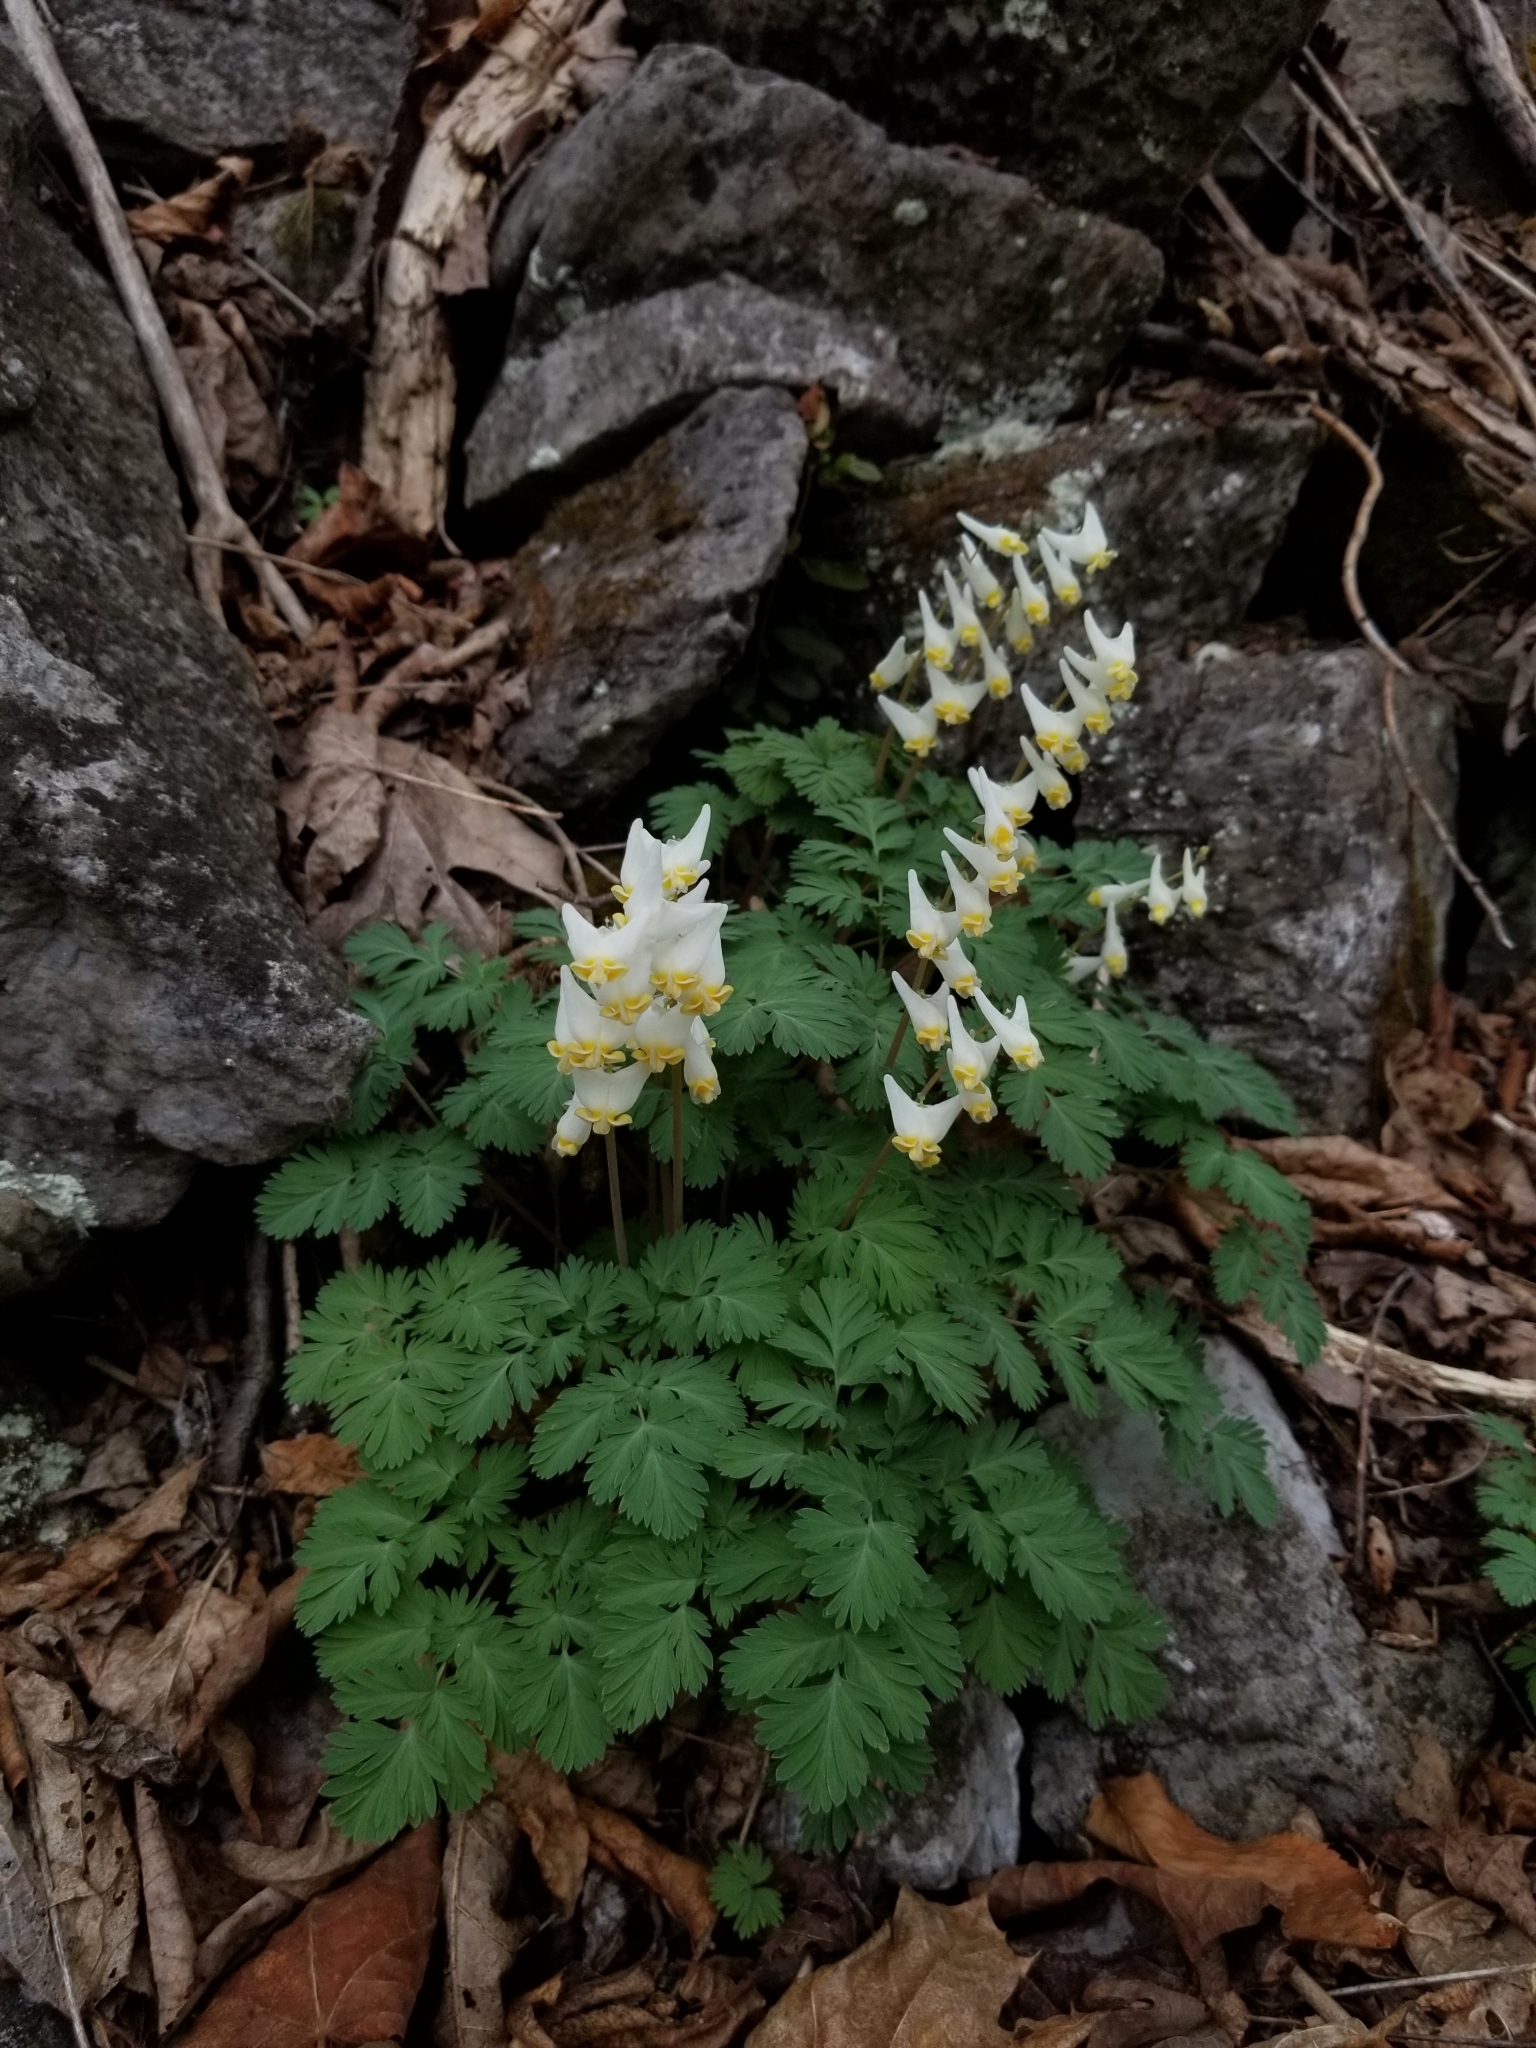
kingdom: Plantae
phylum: Tracheophyta
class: Magnoliopsida
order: Ranunculales
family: Papaveraceae
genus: Dicentra
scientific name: Dicentra cucullaria
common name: Dutchman's breeches
